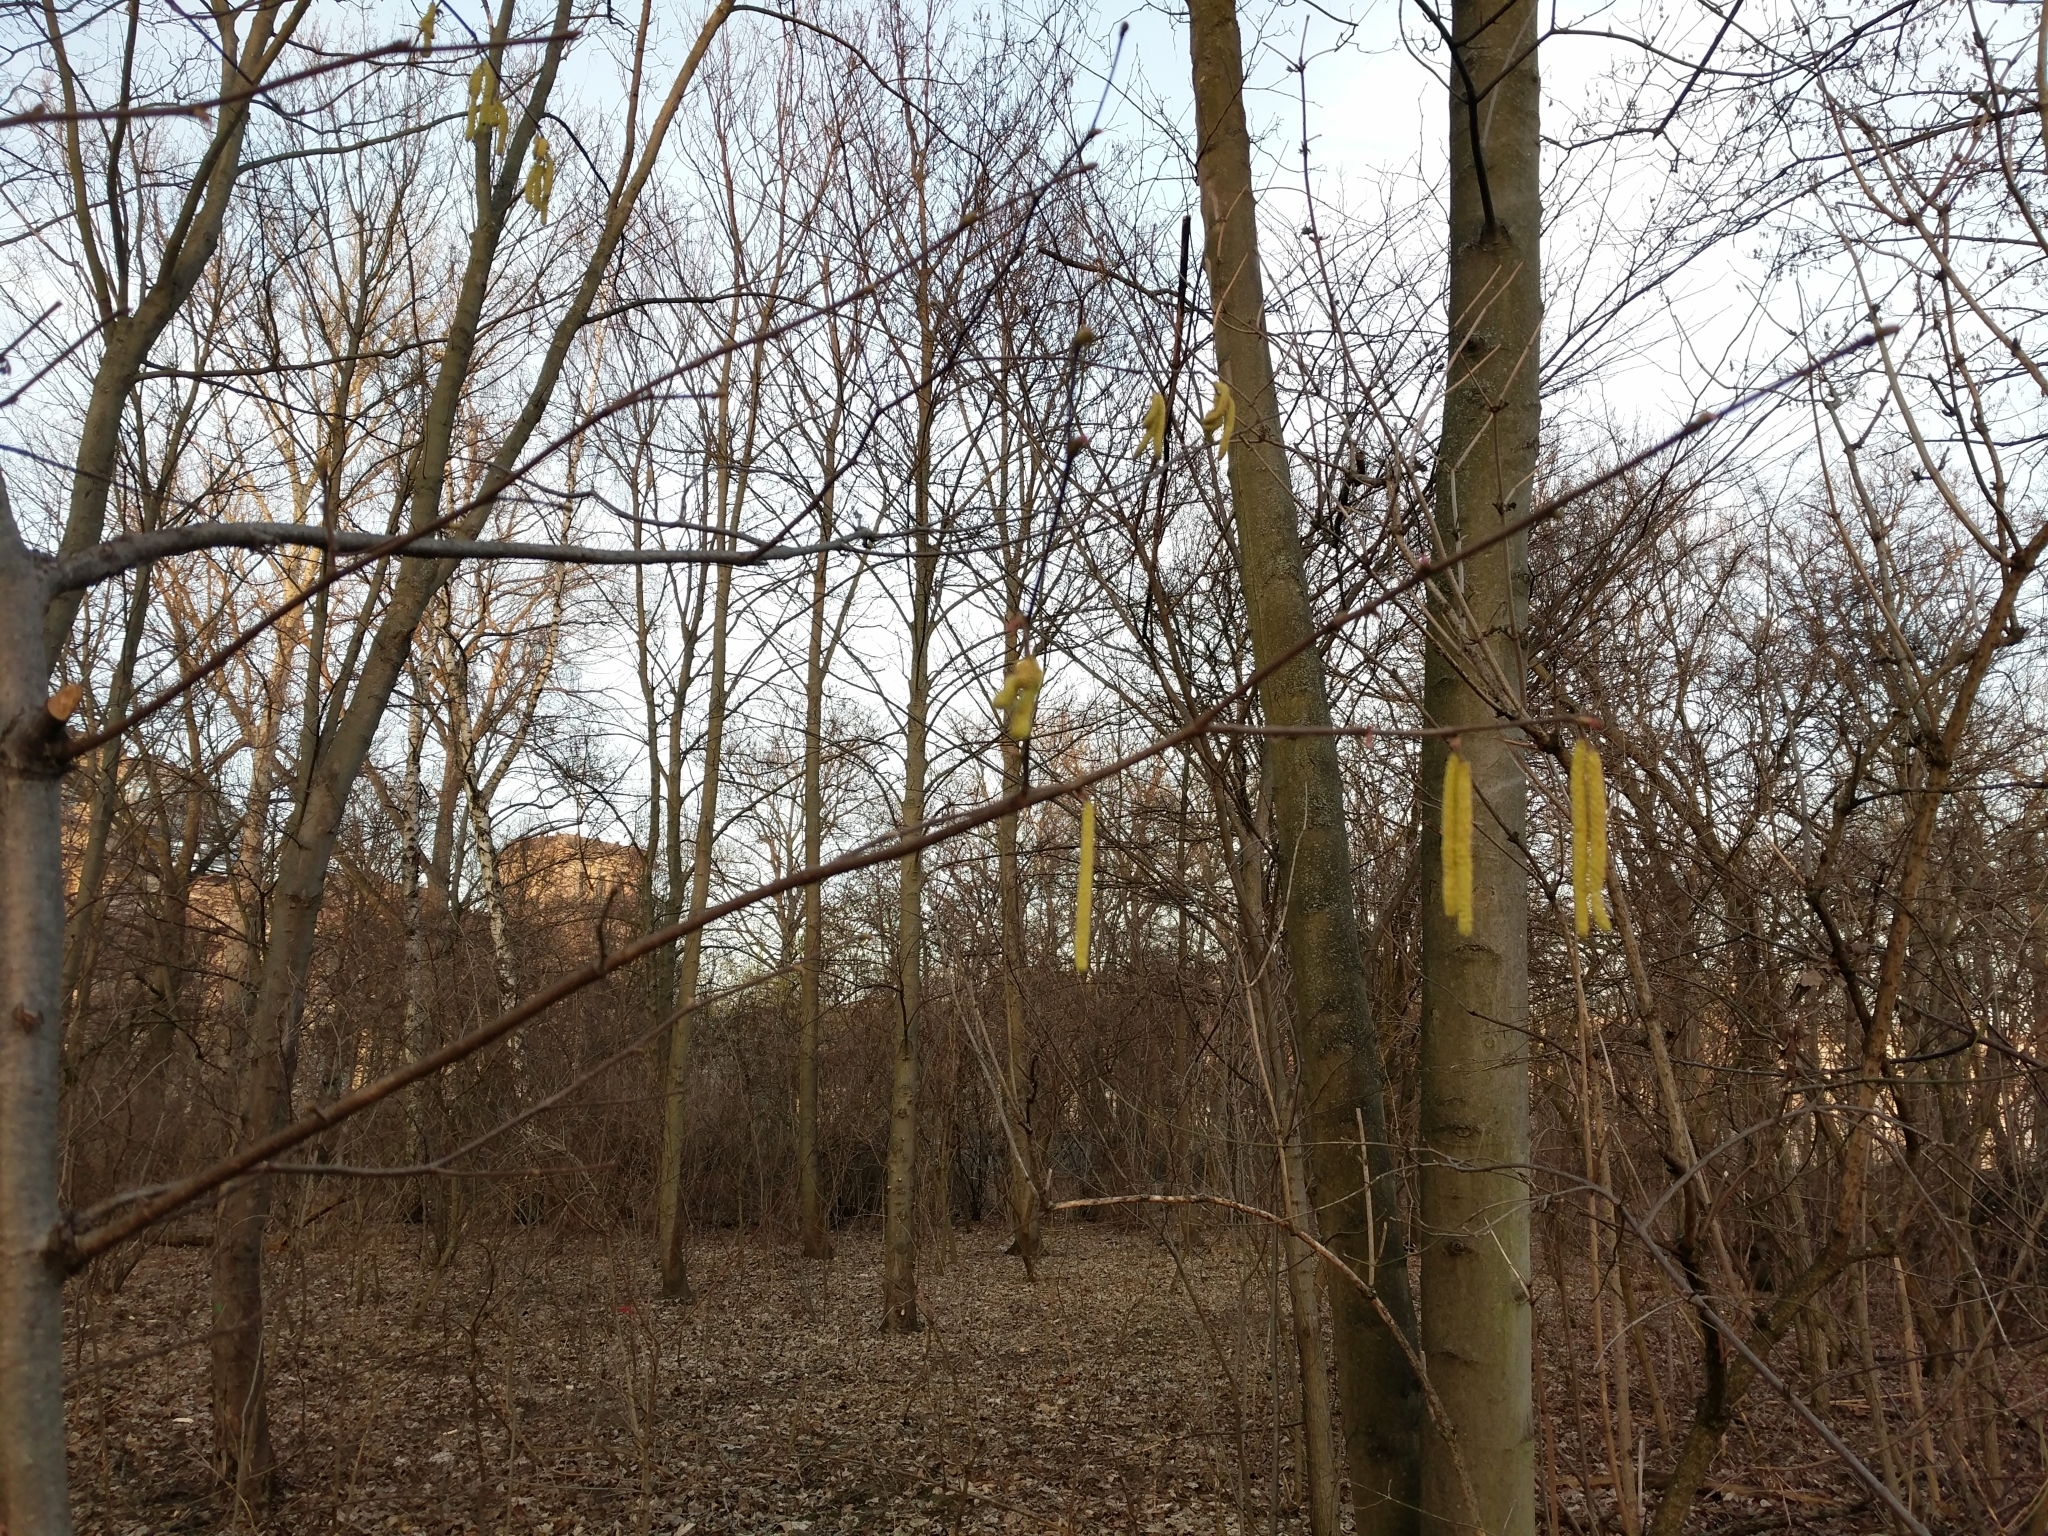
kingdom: Plantae
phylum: Tracheophyta
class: Magnoliopsida
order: Fagales
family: Betulaceae
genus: Corylus
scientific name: Corylus avellana
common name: European hazel
